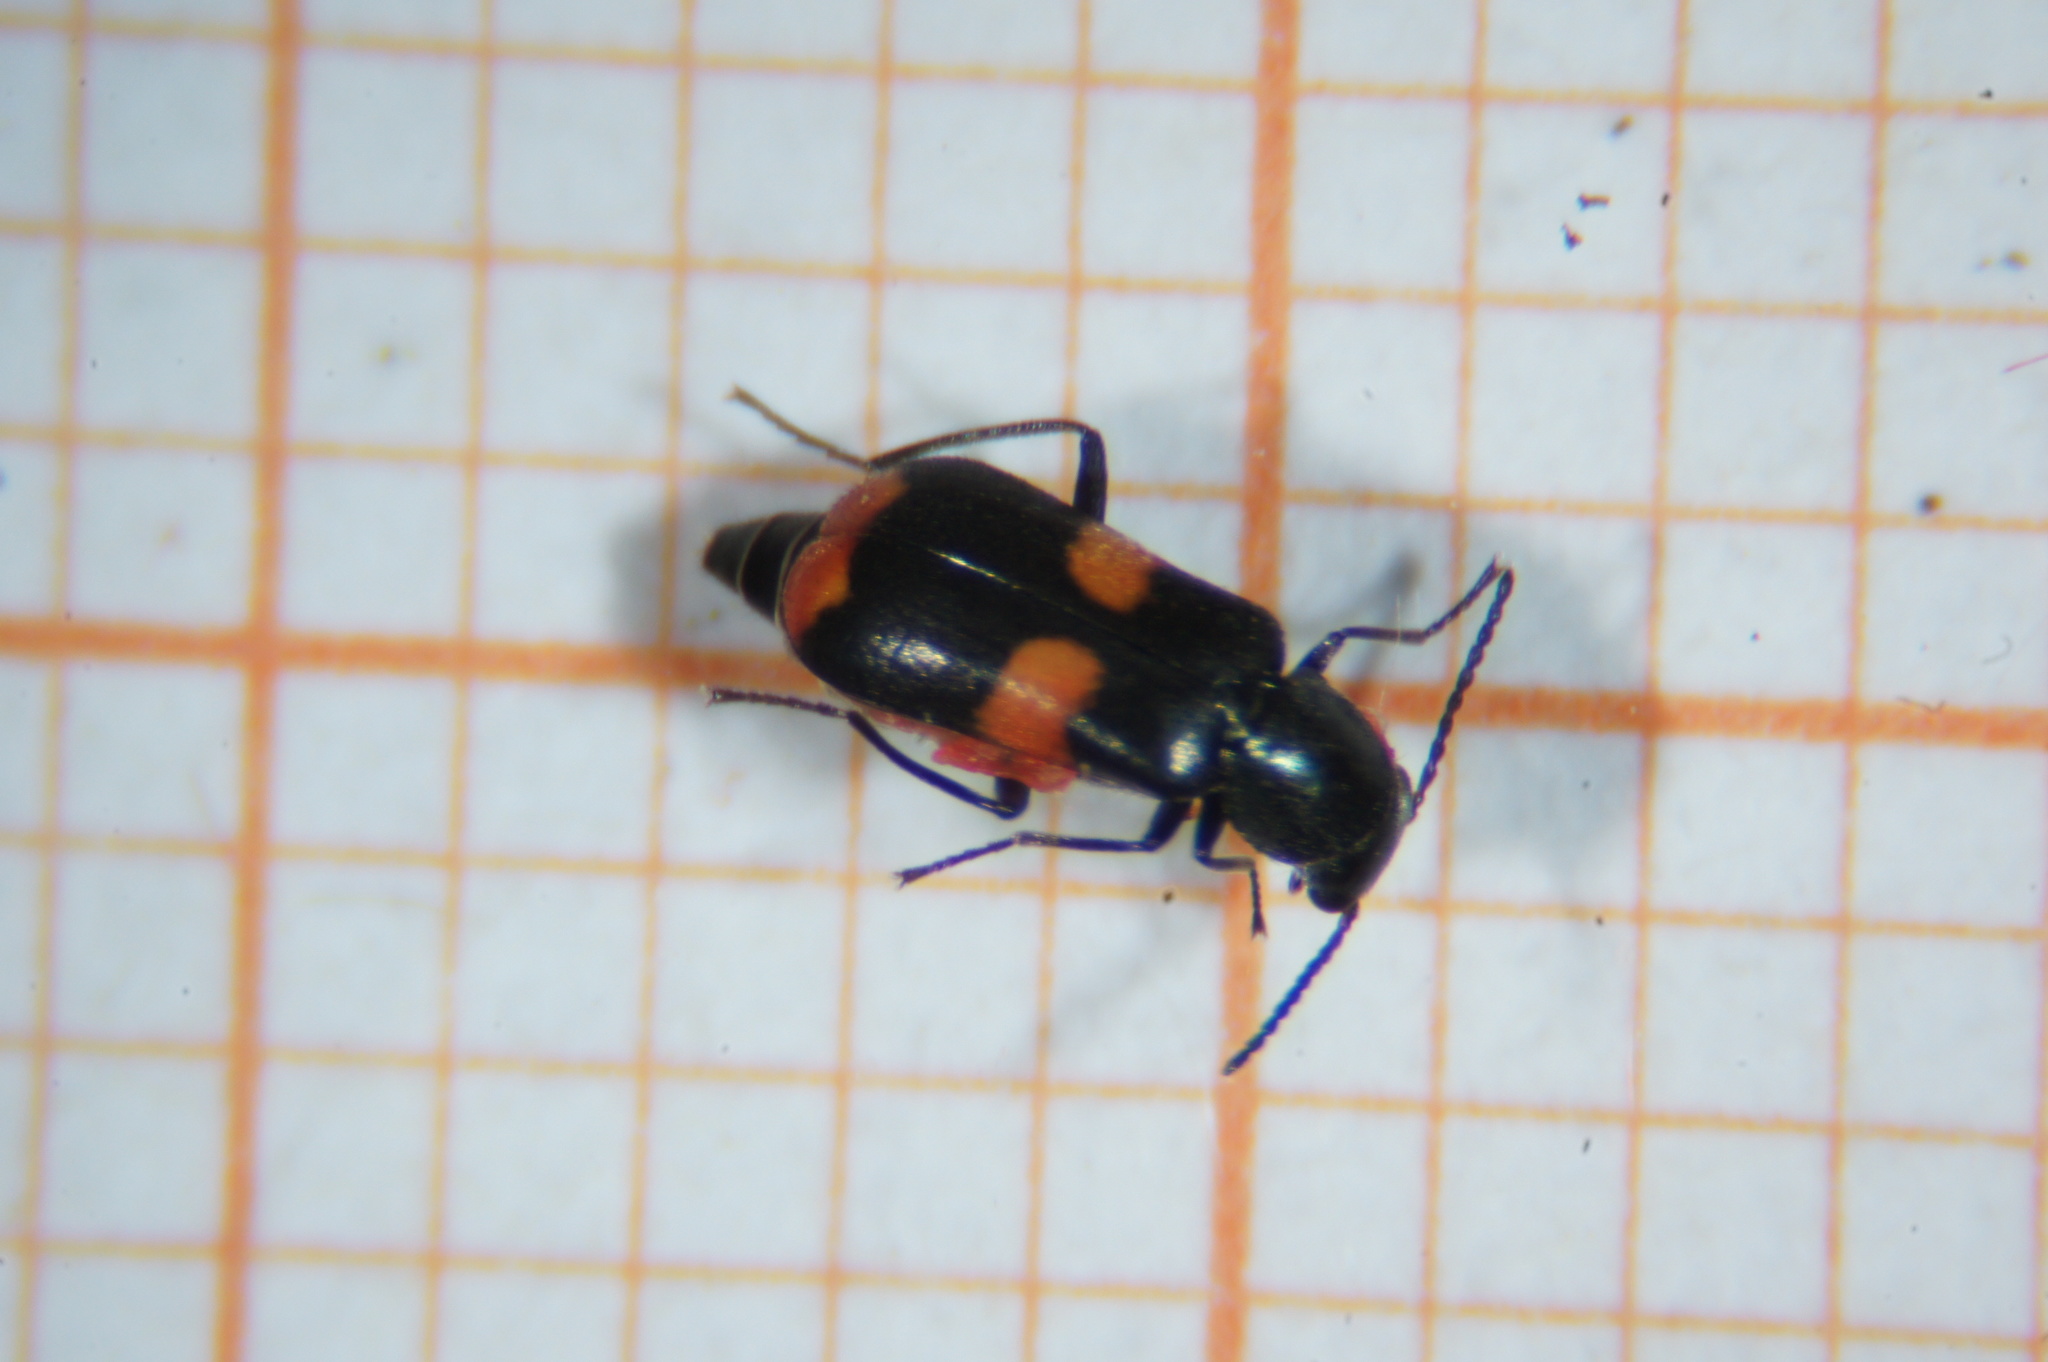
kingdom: Animalia
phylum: Arthropoda
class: Insecta
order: Coleoptera
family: Melyridae
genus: Anthocomus
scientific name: Anthocomus fasciatus
